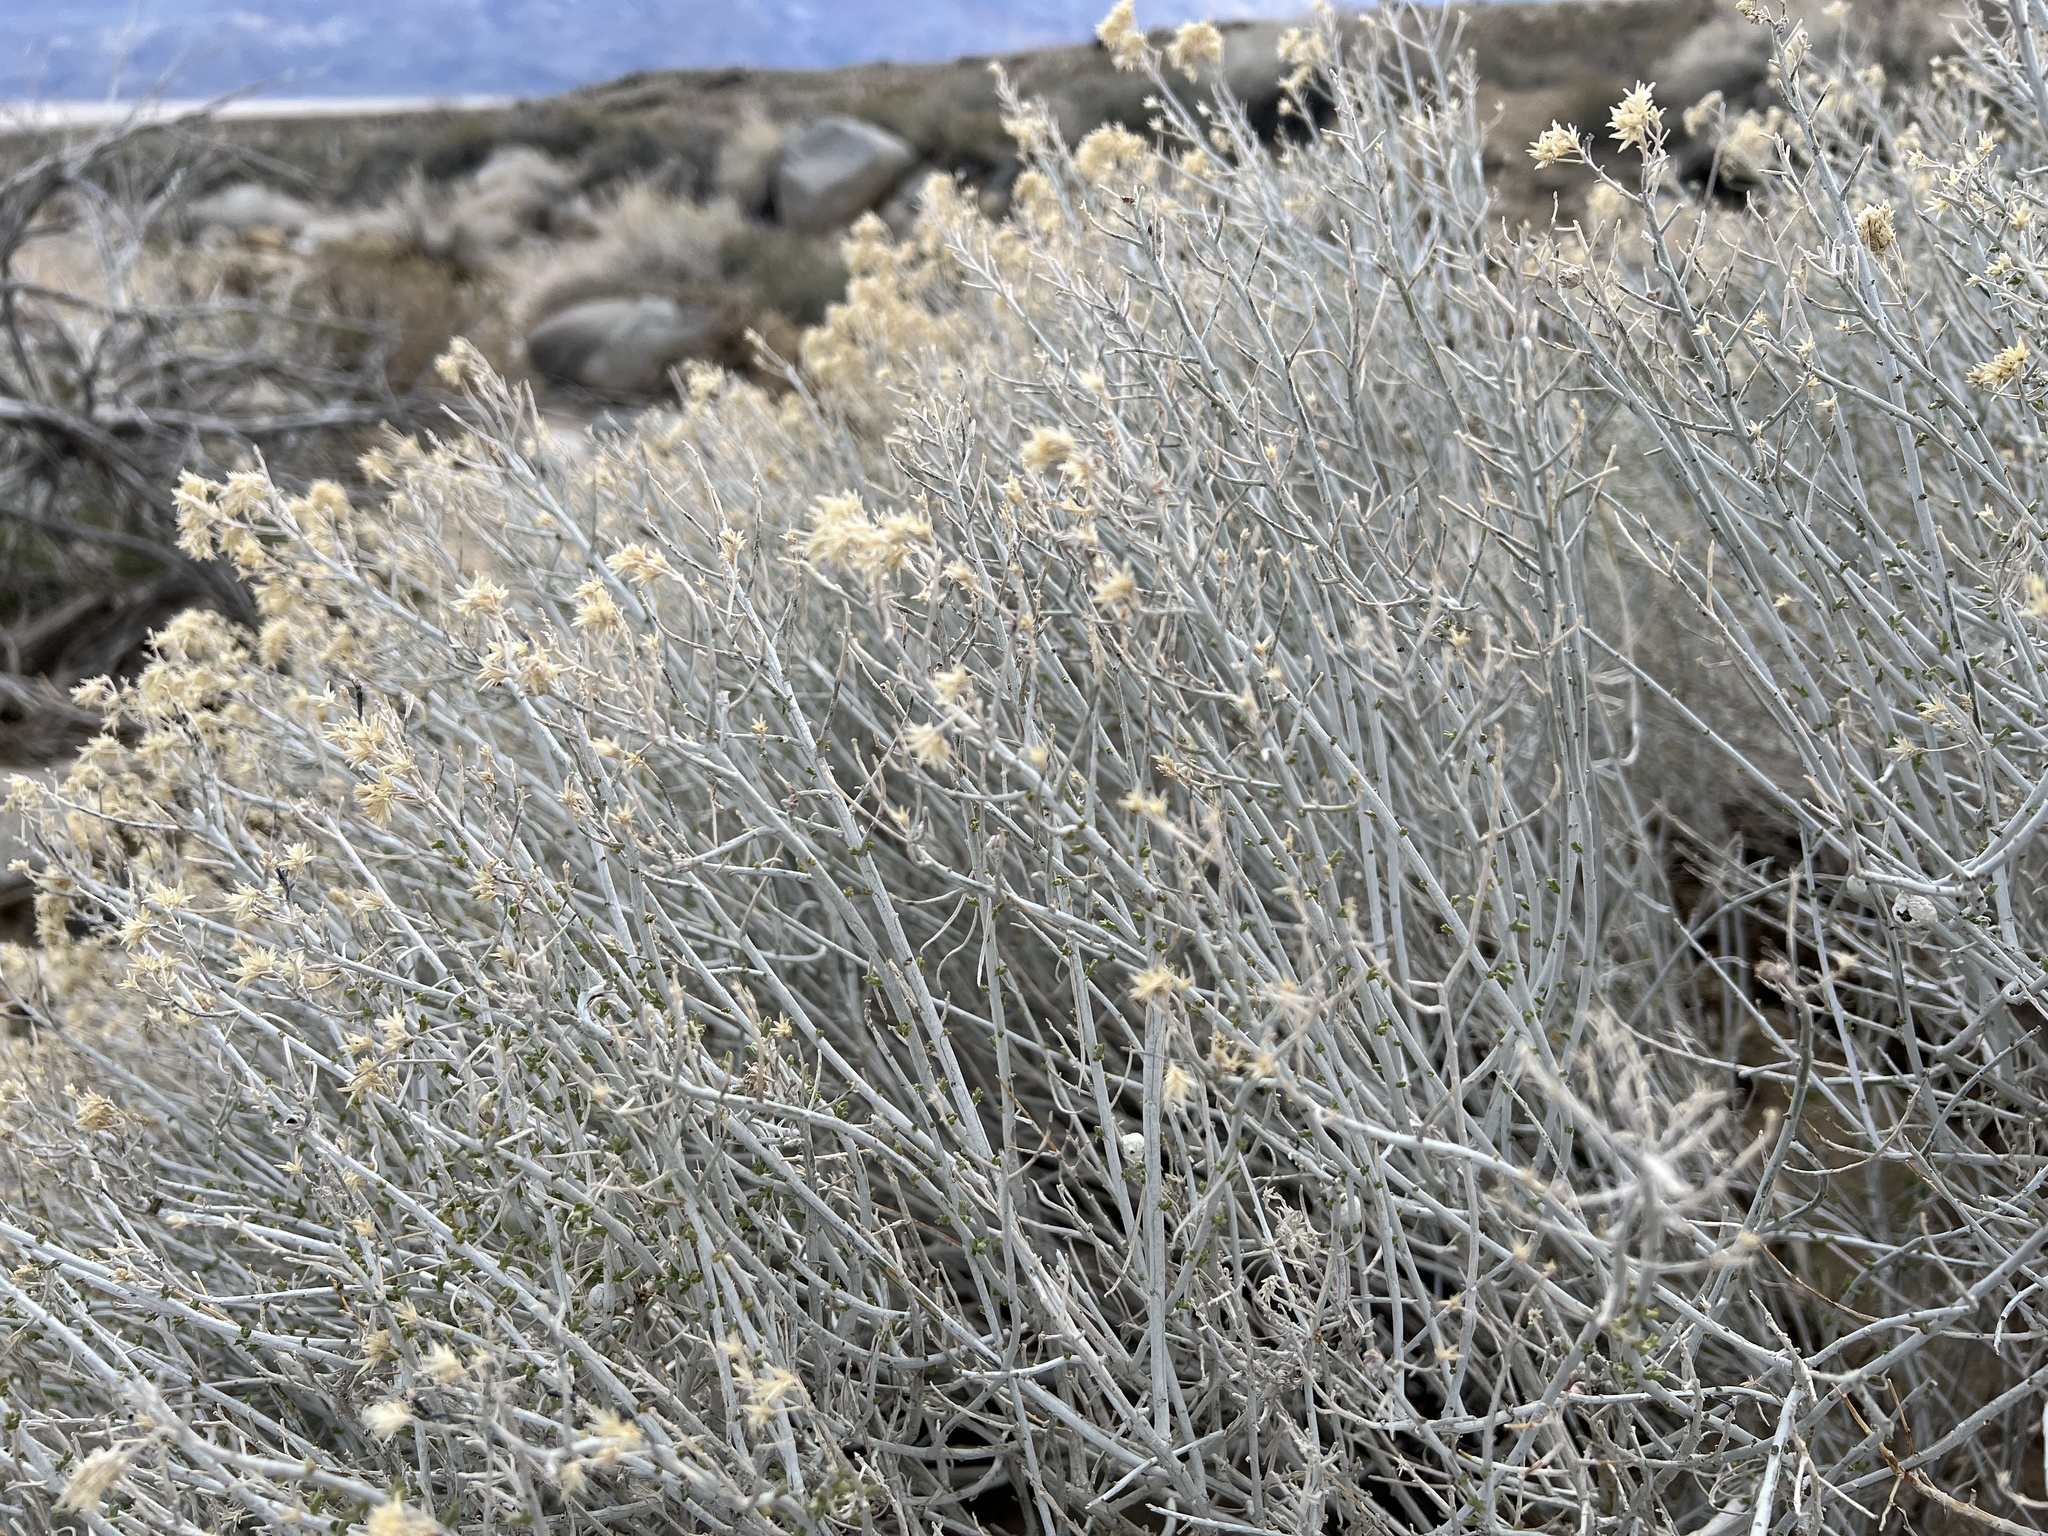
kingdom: Plantae
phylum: Tracheophyta
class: Magnoliopsida
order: Asterales
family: Asteraceae
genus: Ericameria
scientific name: Ericameria nauseosa
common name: Rubber rabbitbrush
